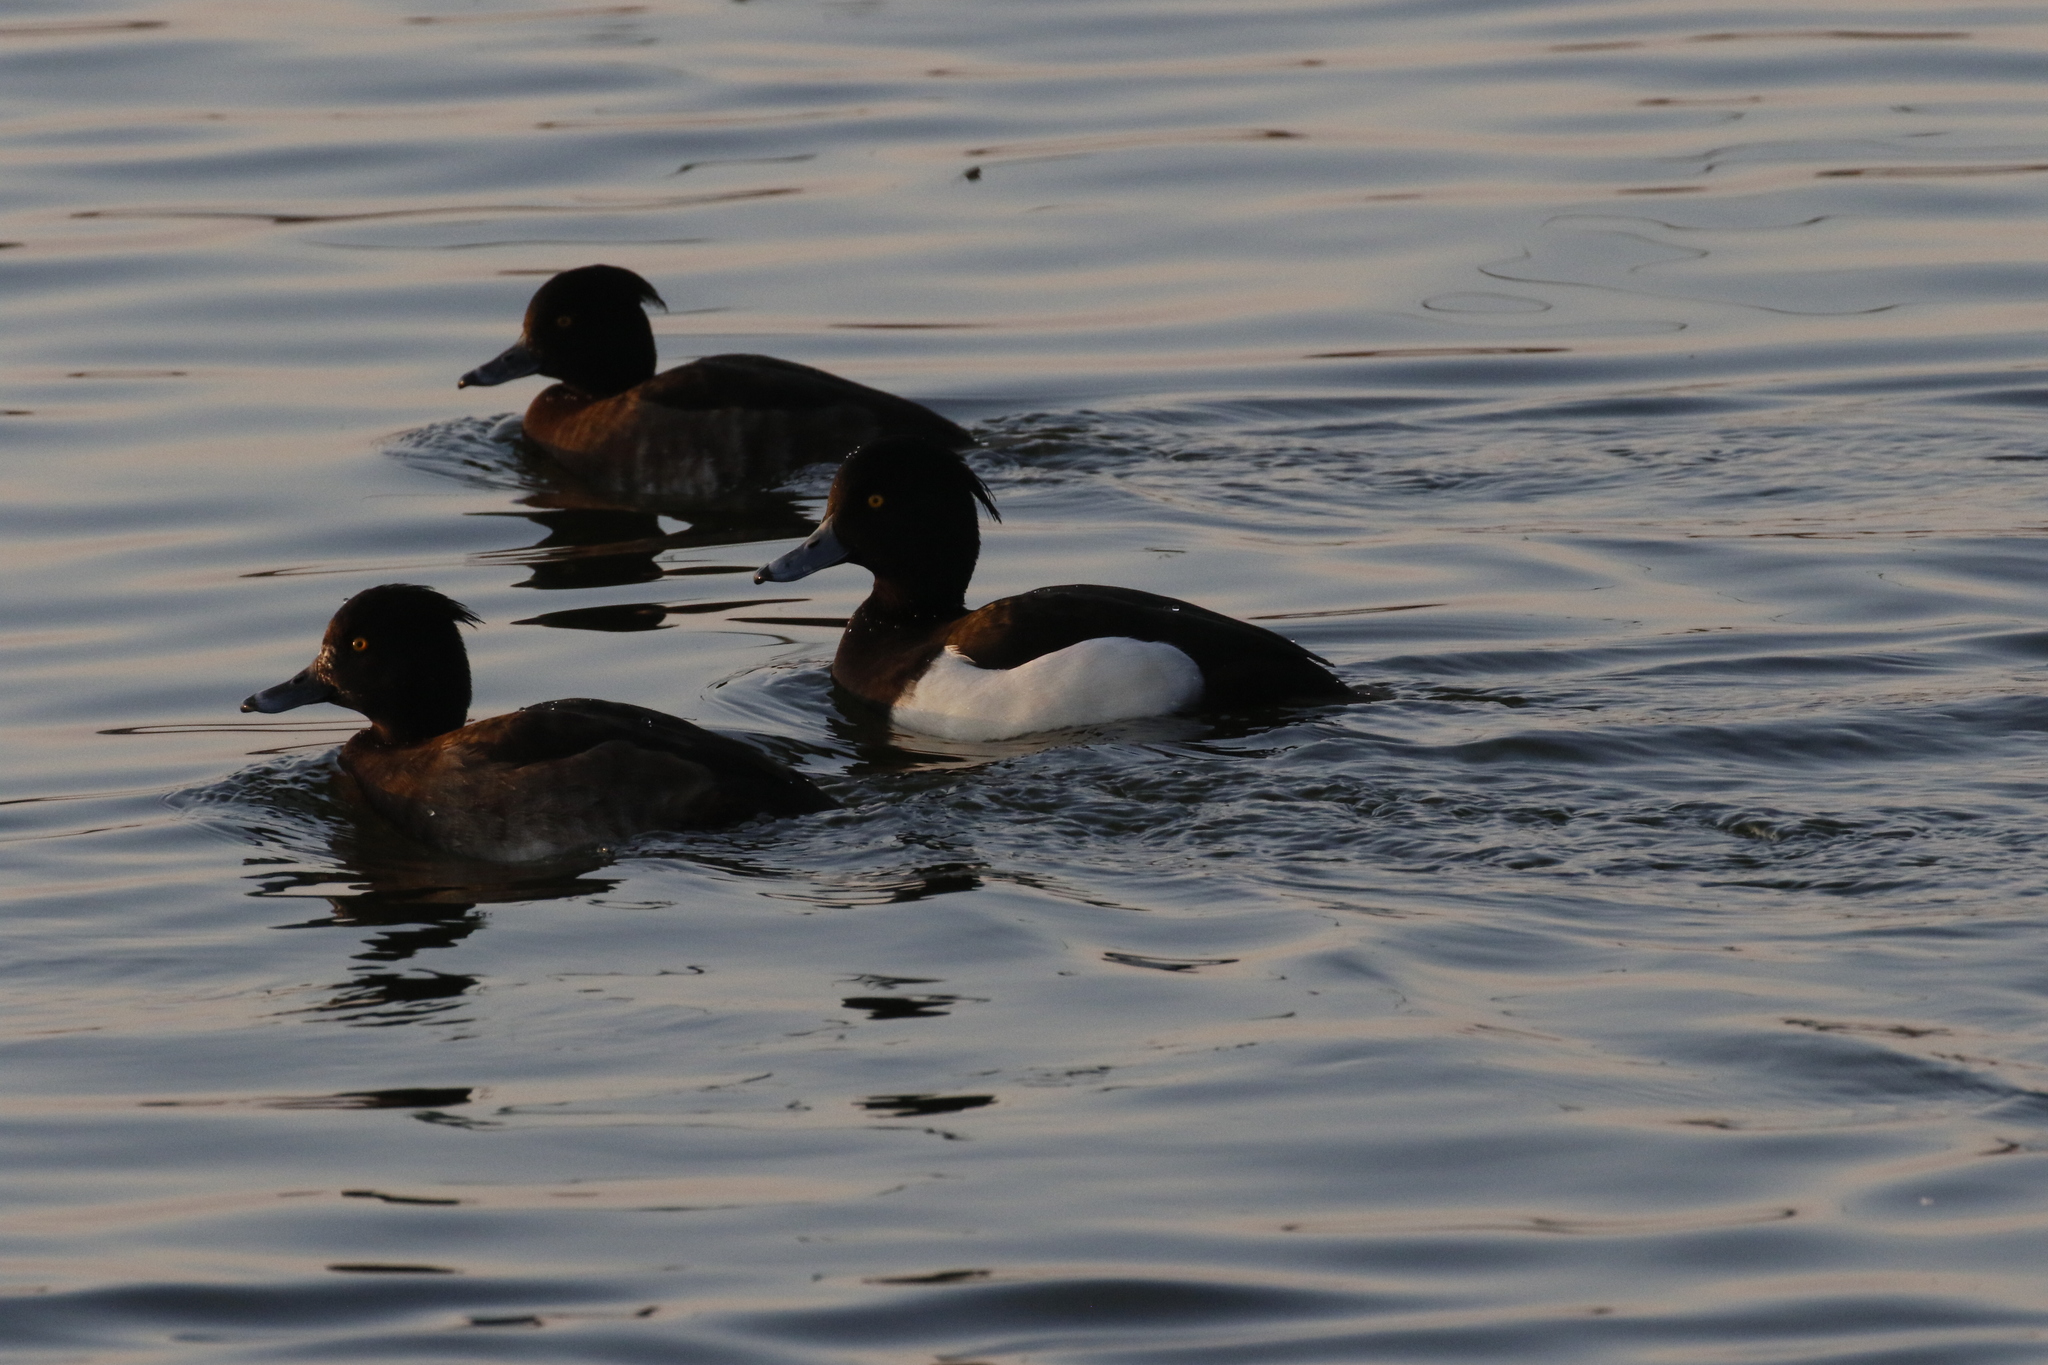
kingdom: Animalia
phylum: Chordata
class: Aves
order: Anseriformes
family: Anatidae
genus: Aythya
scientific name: Aythya fuligula
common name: Tufted duck
